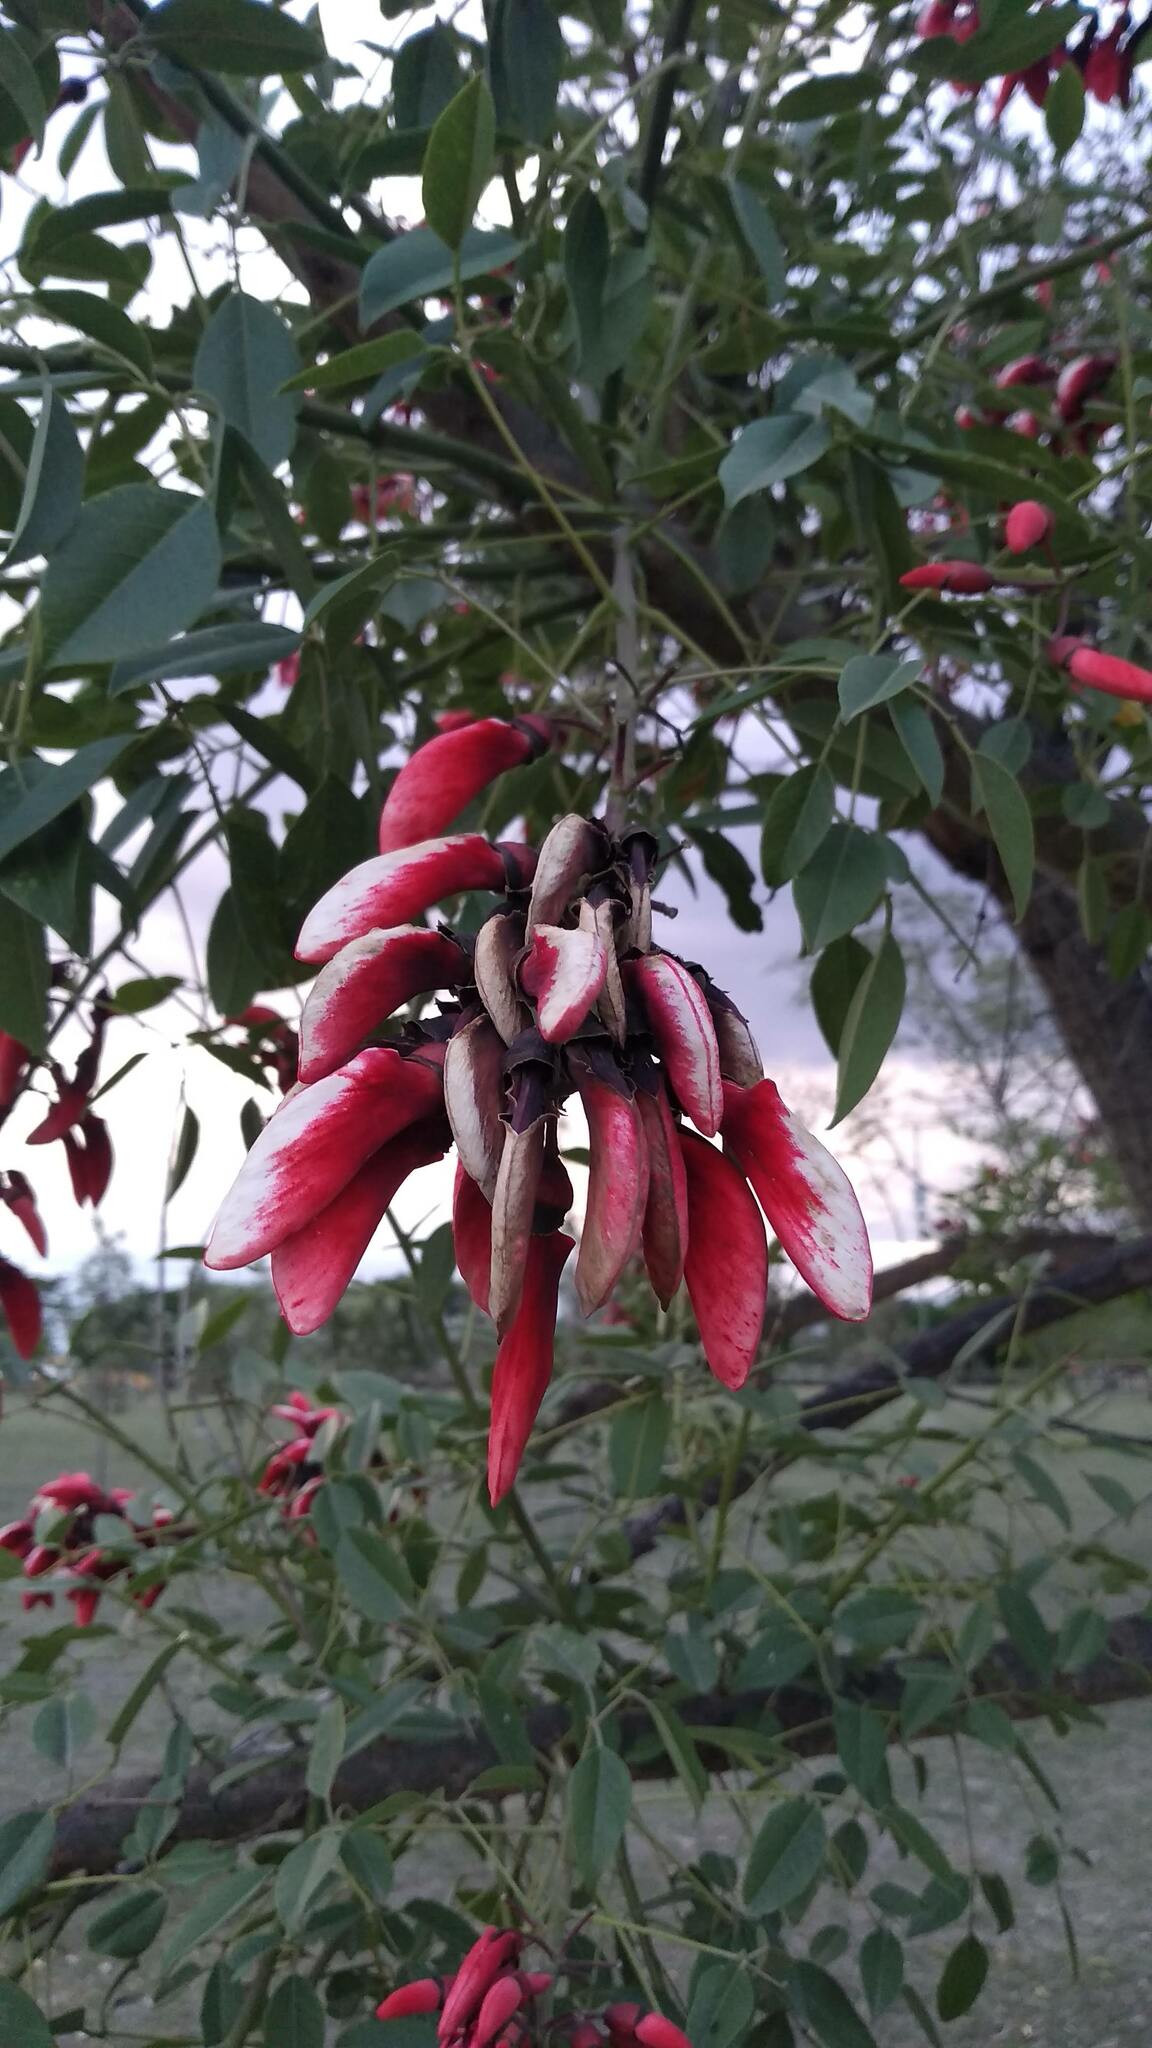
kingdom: Plantae
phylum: Tracheophyta
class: Magnoliopsida
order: Fabales
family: Fabaceae
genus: Erythrina
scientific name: Erythrina crista-galli
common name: Cockspur coral tree
